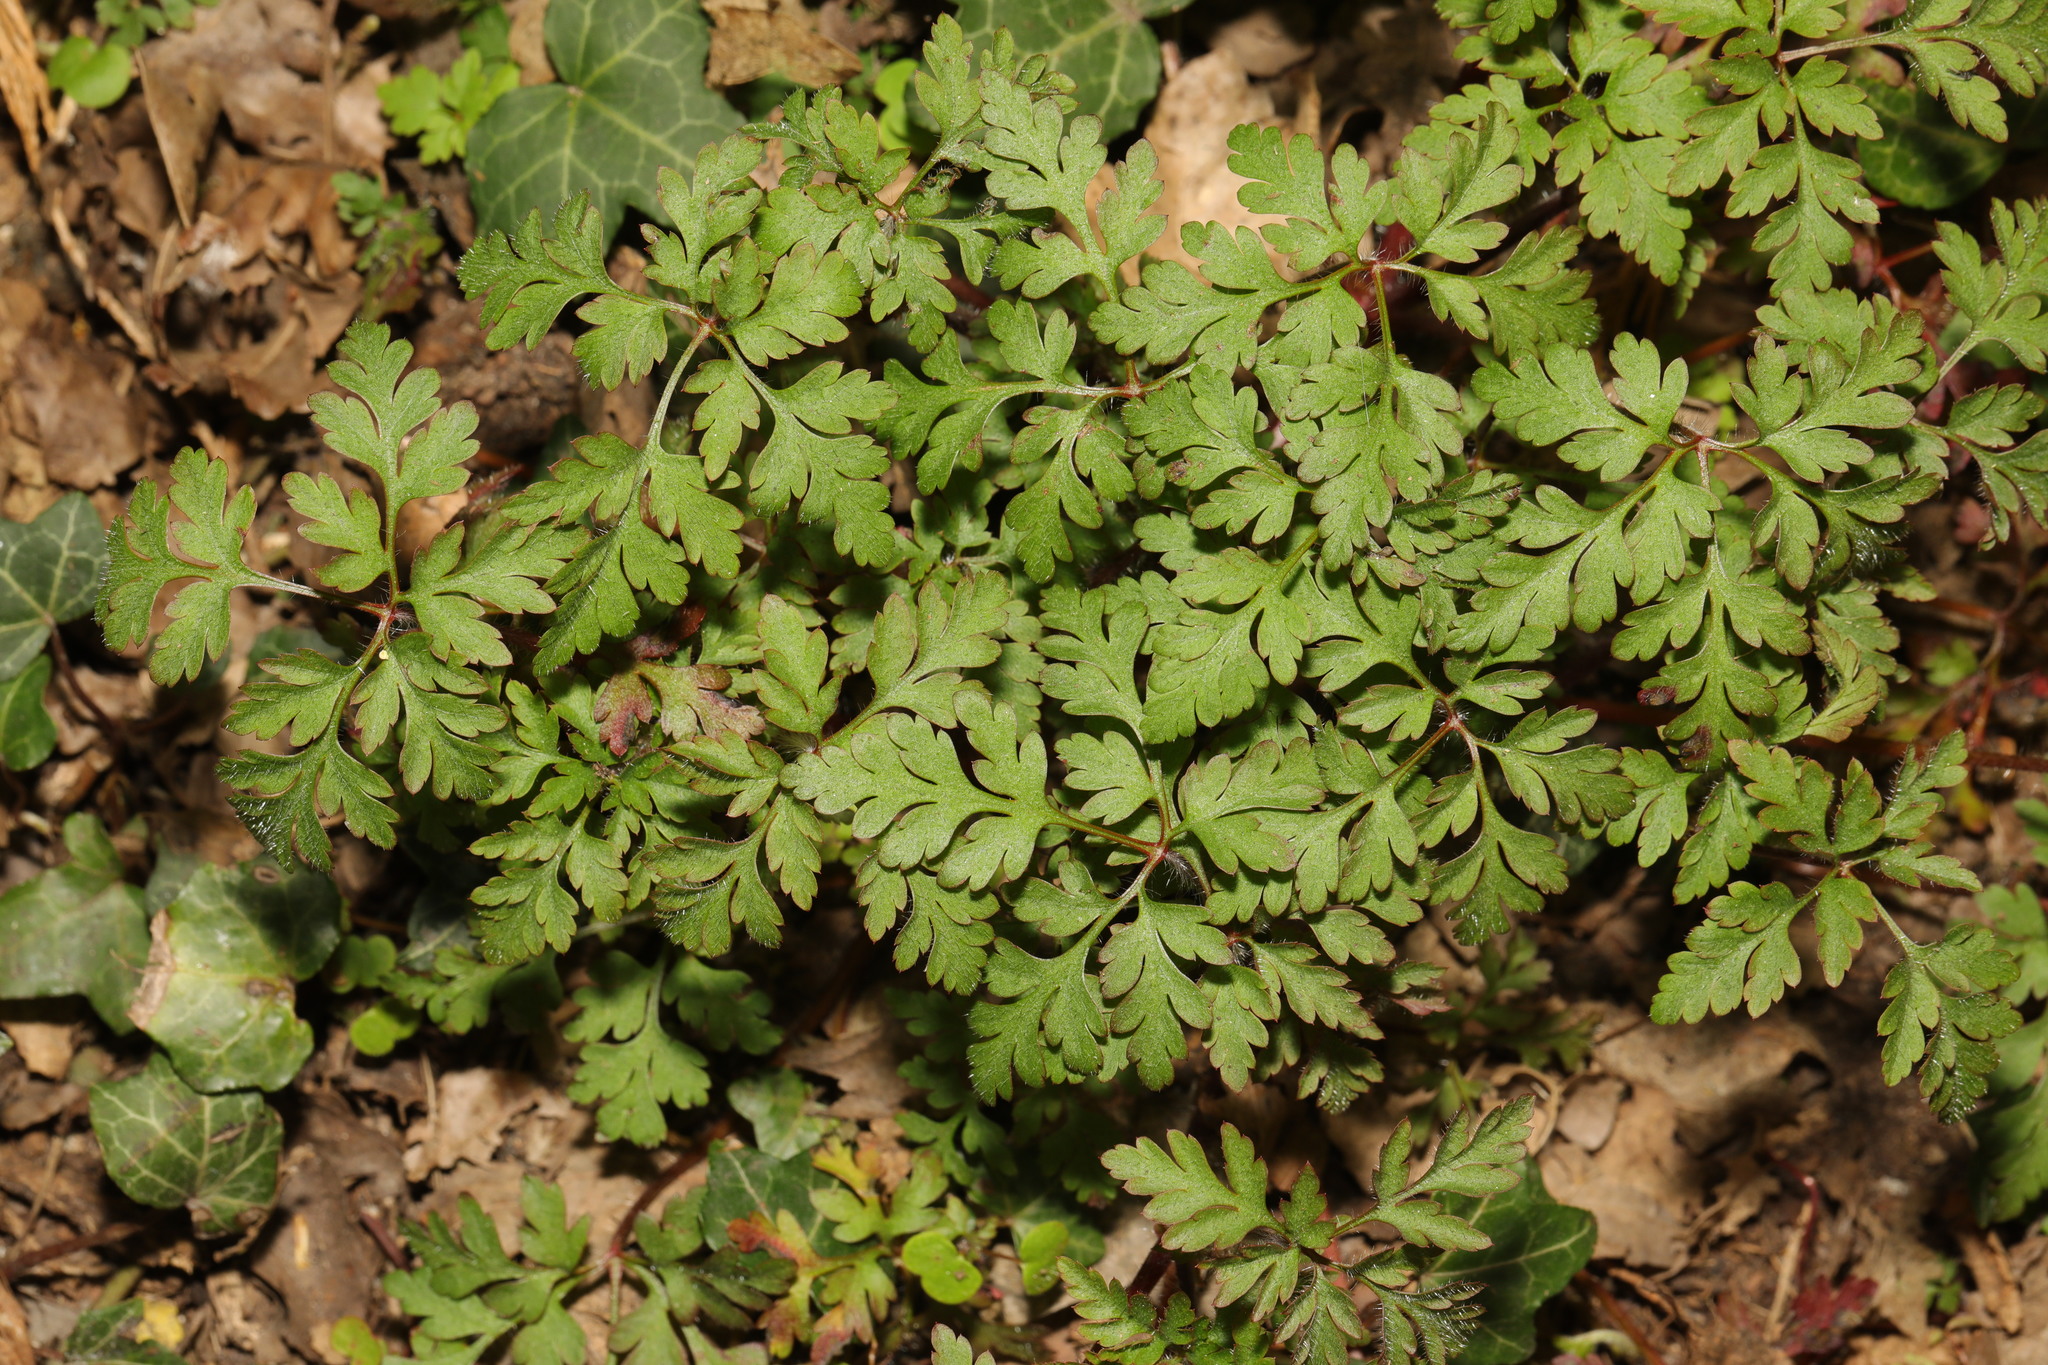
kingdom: Plantae
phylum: Tracheophyta
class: Magnoliopsida
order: Geraniales
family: Geraniaceae
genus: Geranium
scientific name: Geranium robertianum
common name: Herb-robert
